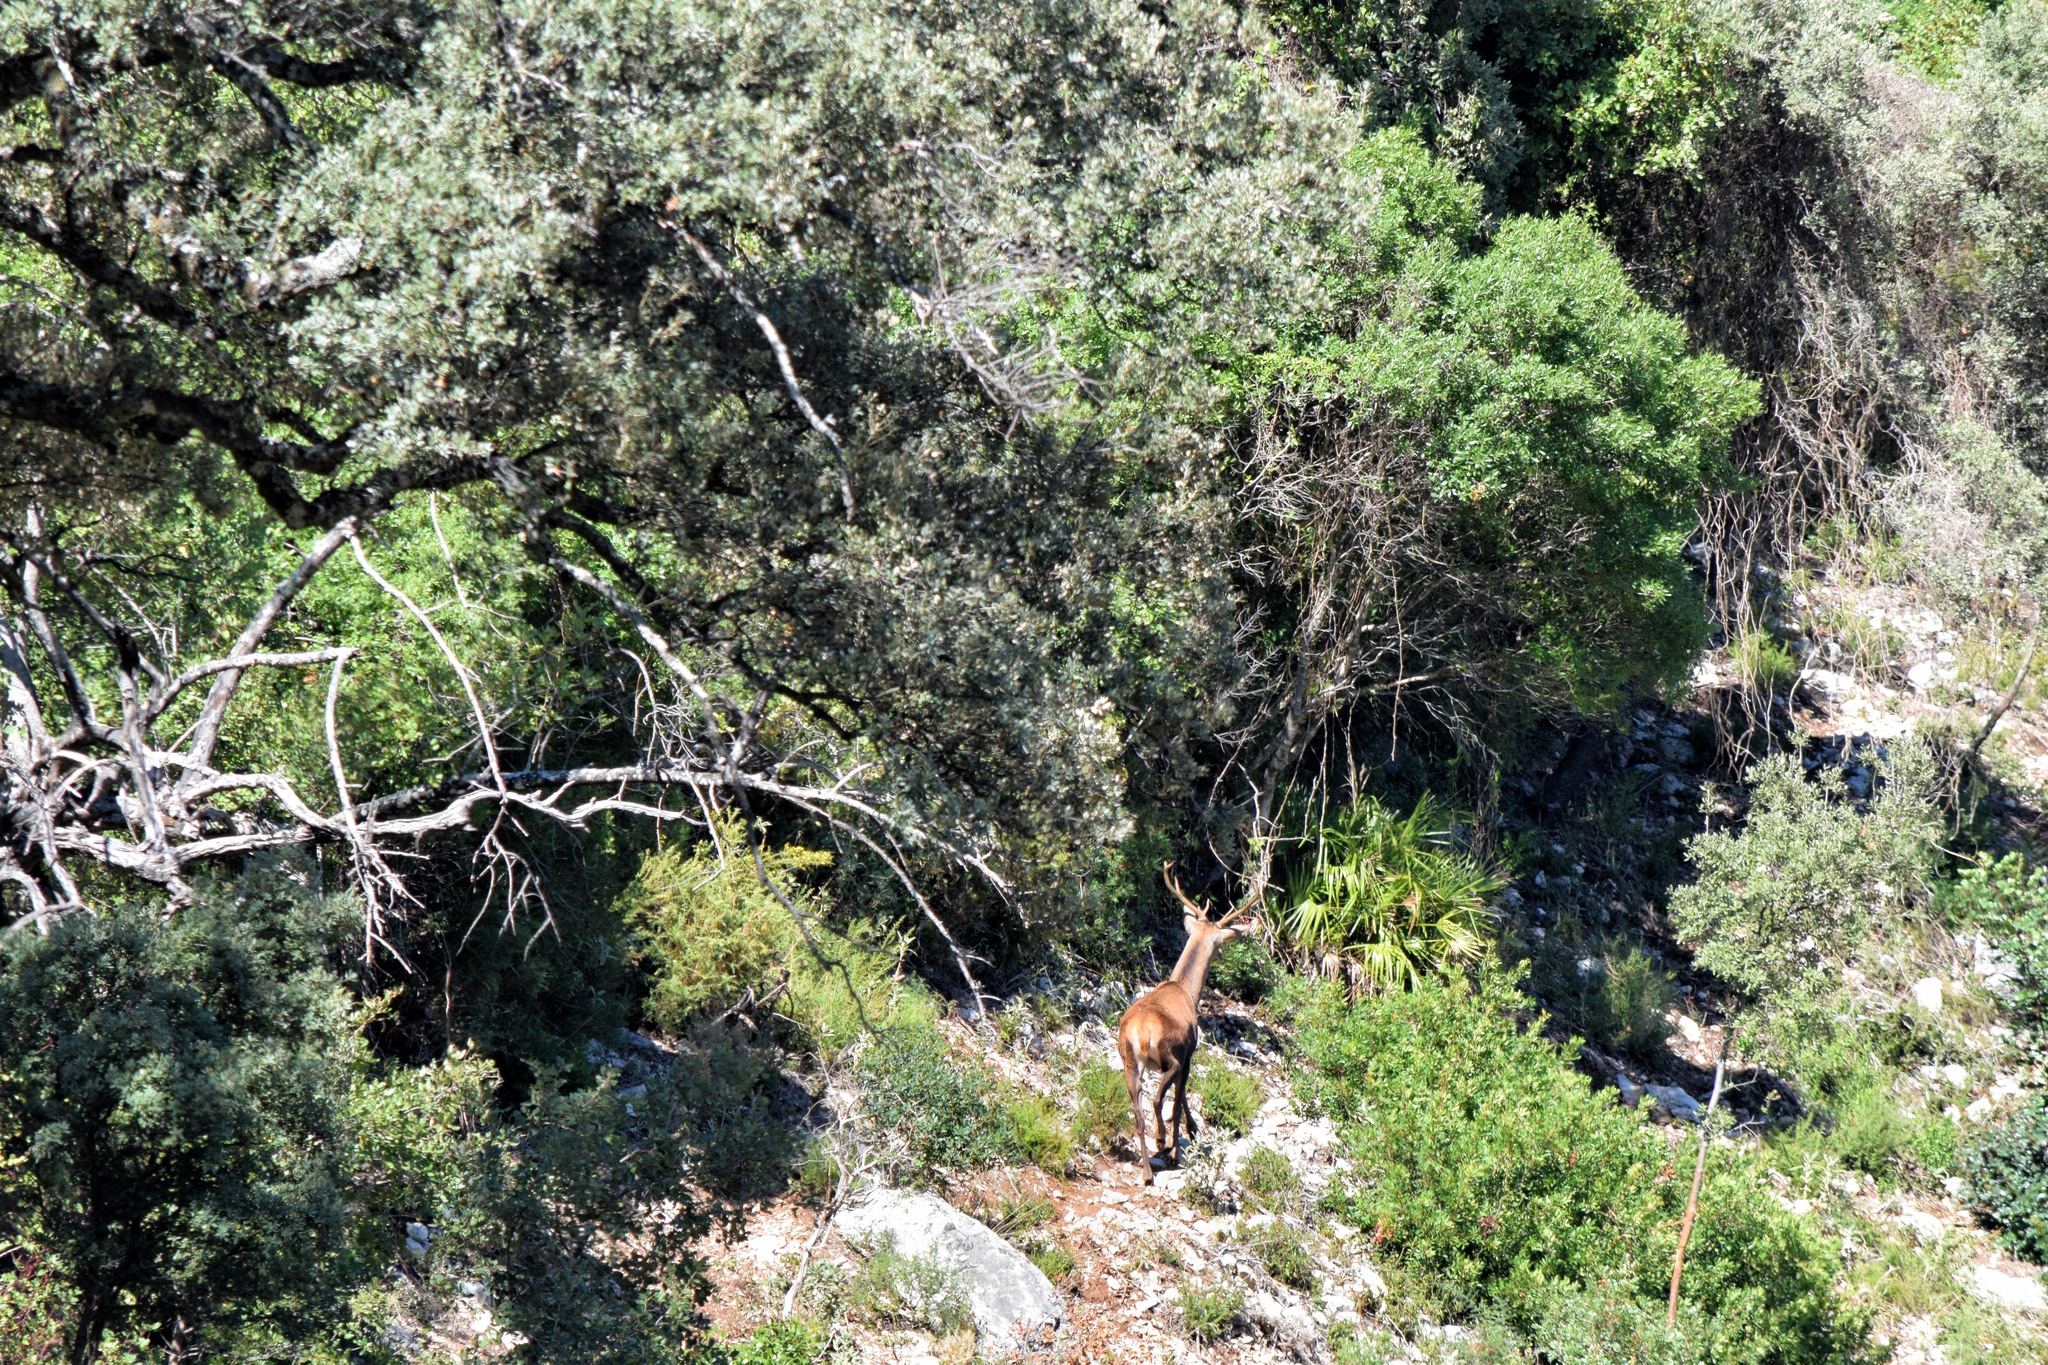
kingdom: Animalia
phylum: Chordata
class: Mammalia
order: Artiodactyla
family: Cervidae
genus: Cervus
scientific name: Cervus elaphus
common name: Red deer
